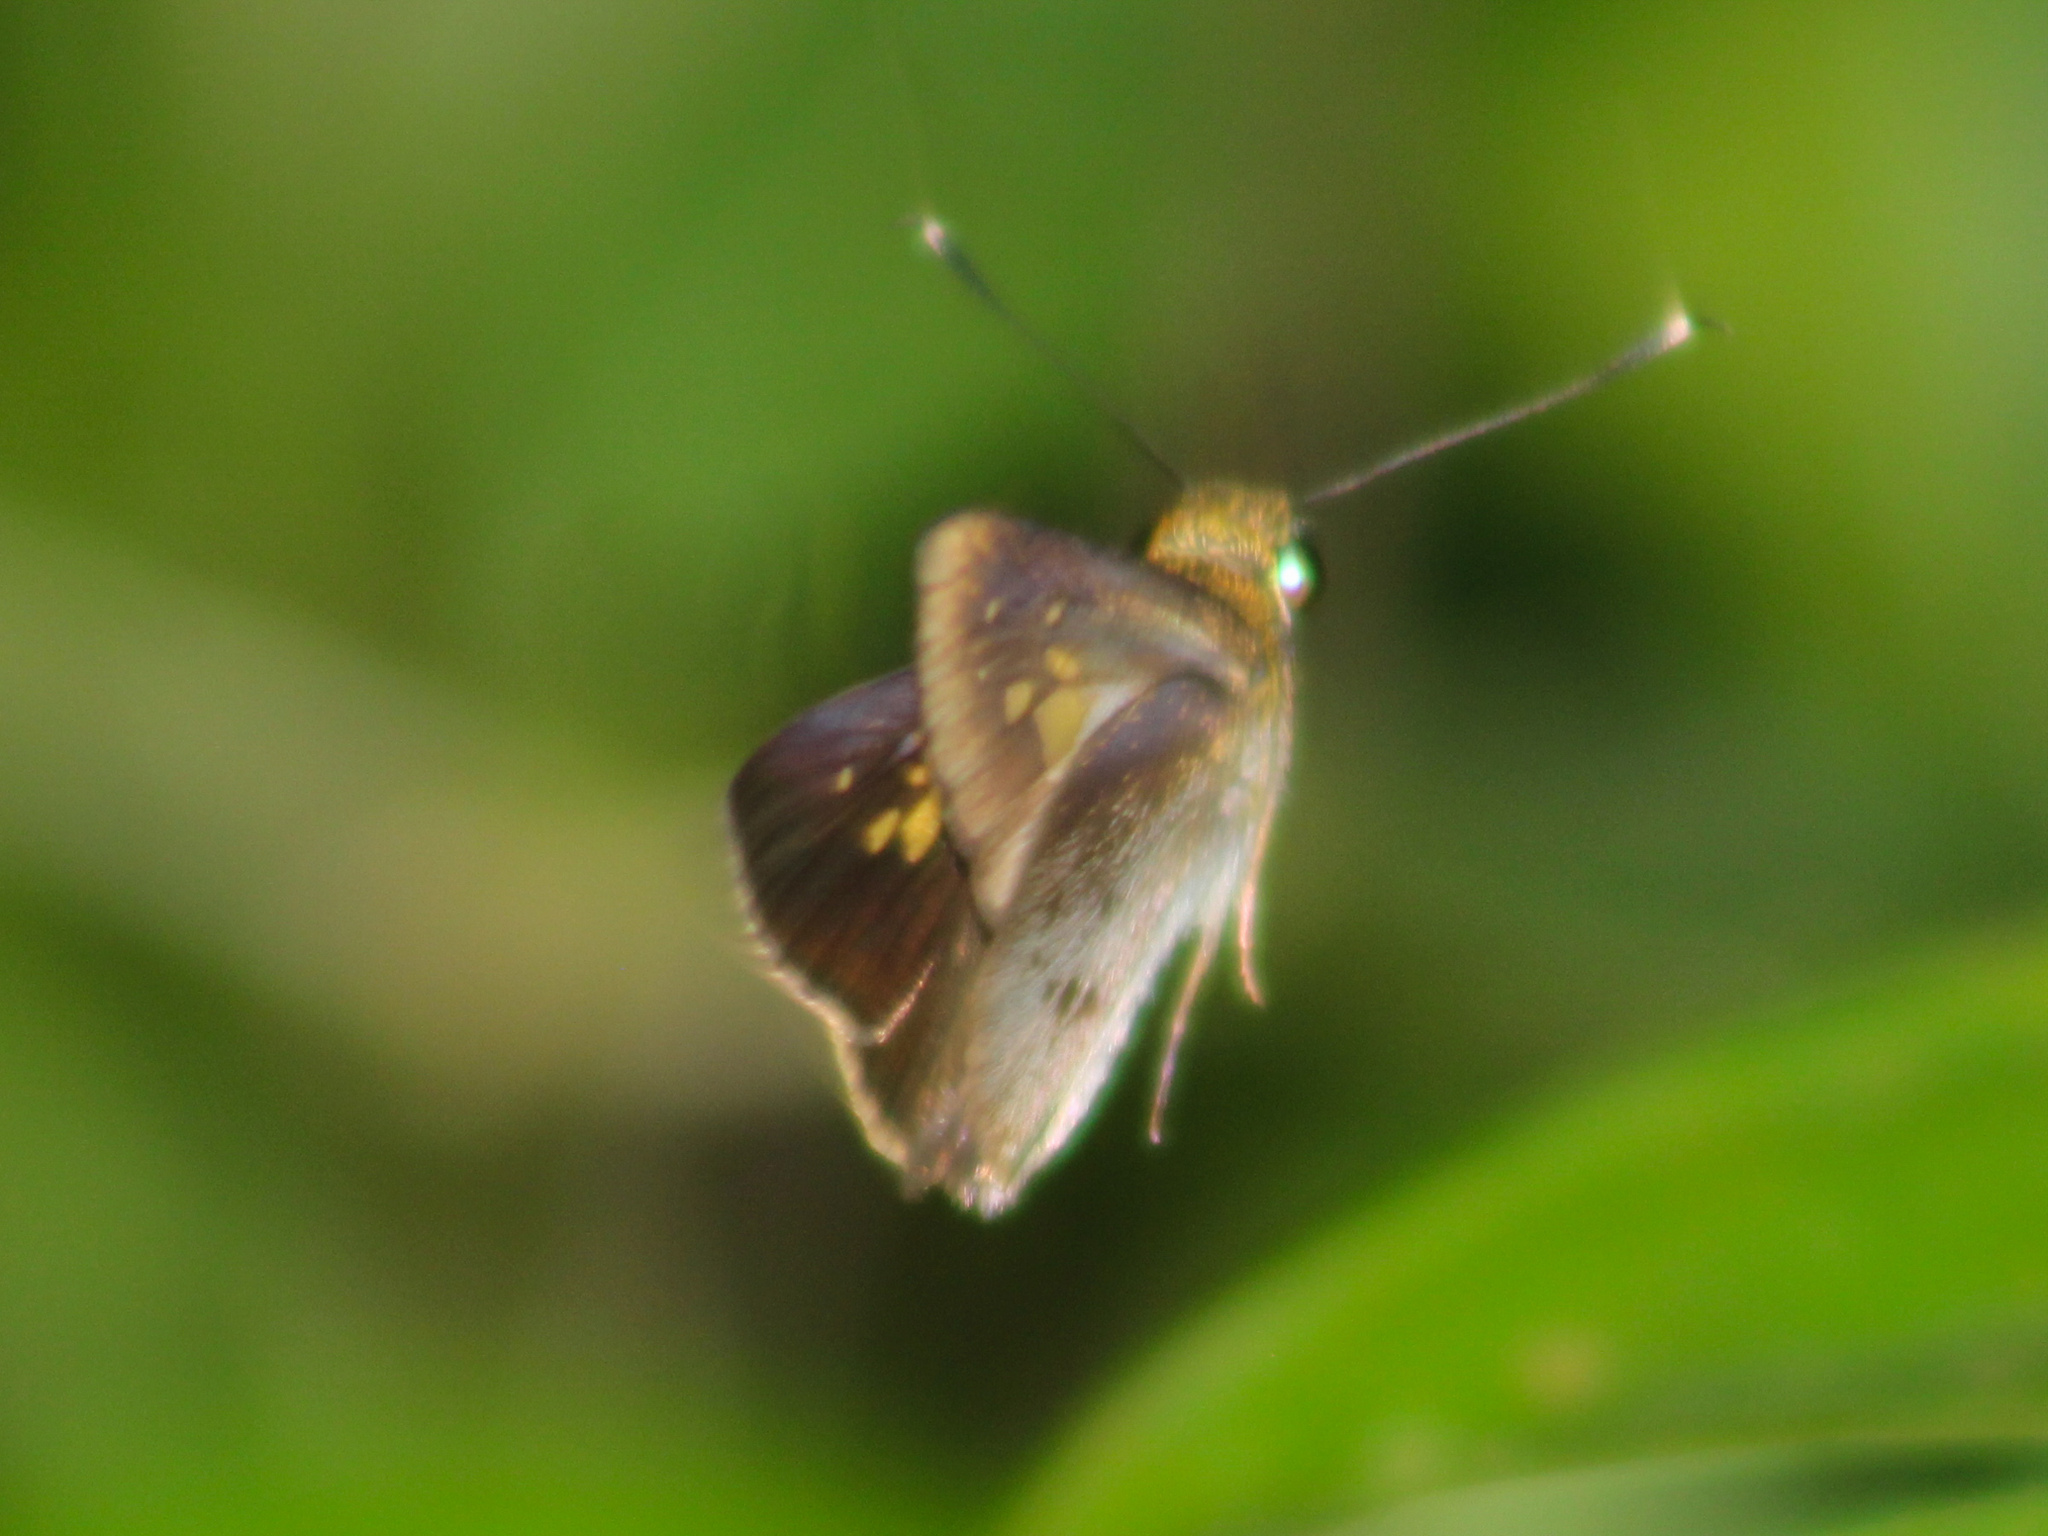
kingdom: Animalia
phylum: Arthropoda
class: Insecta
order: Lepidoptera
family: Hesperiidae
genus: Suastus
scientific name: Suastus minuta
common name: Small palm bob
